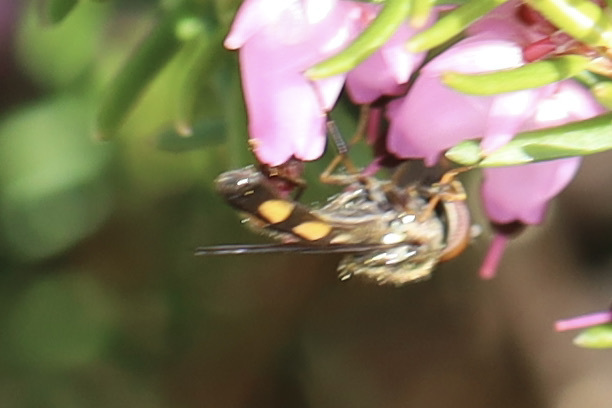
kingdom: Animalia
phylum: Arthropoda
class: Insecta
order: Diptera
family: Syrphidae
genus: Melanostoma
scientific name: Melanostoma mellina
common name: Hover fly
